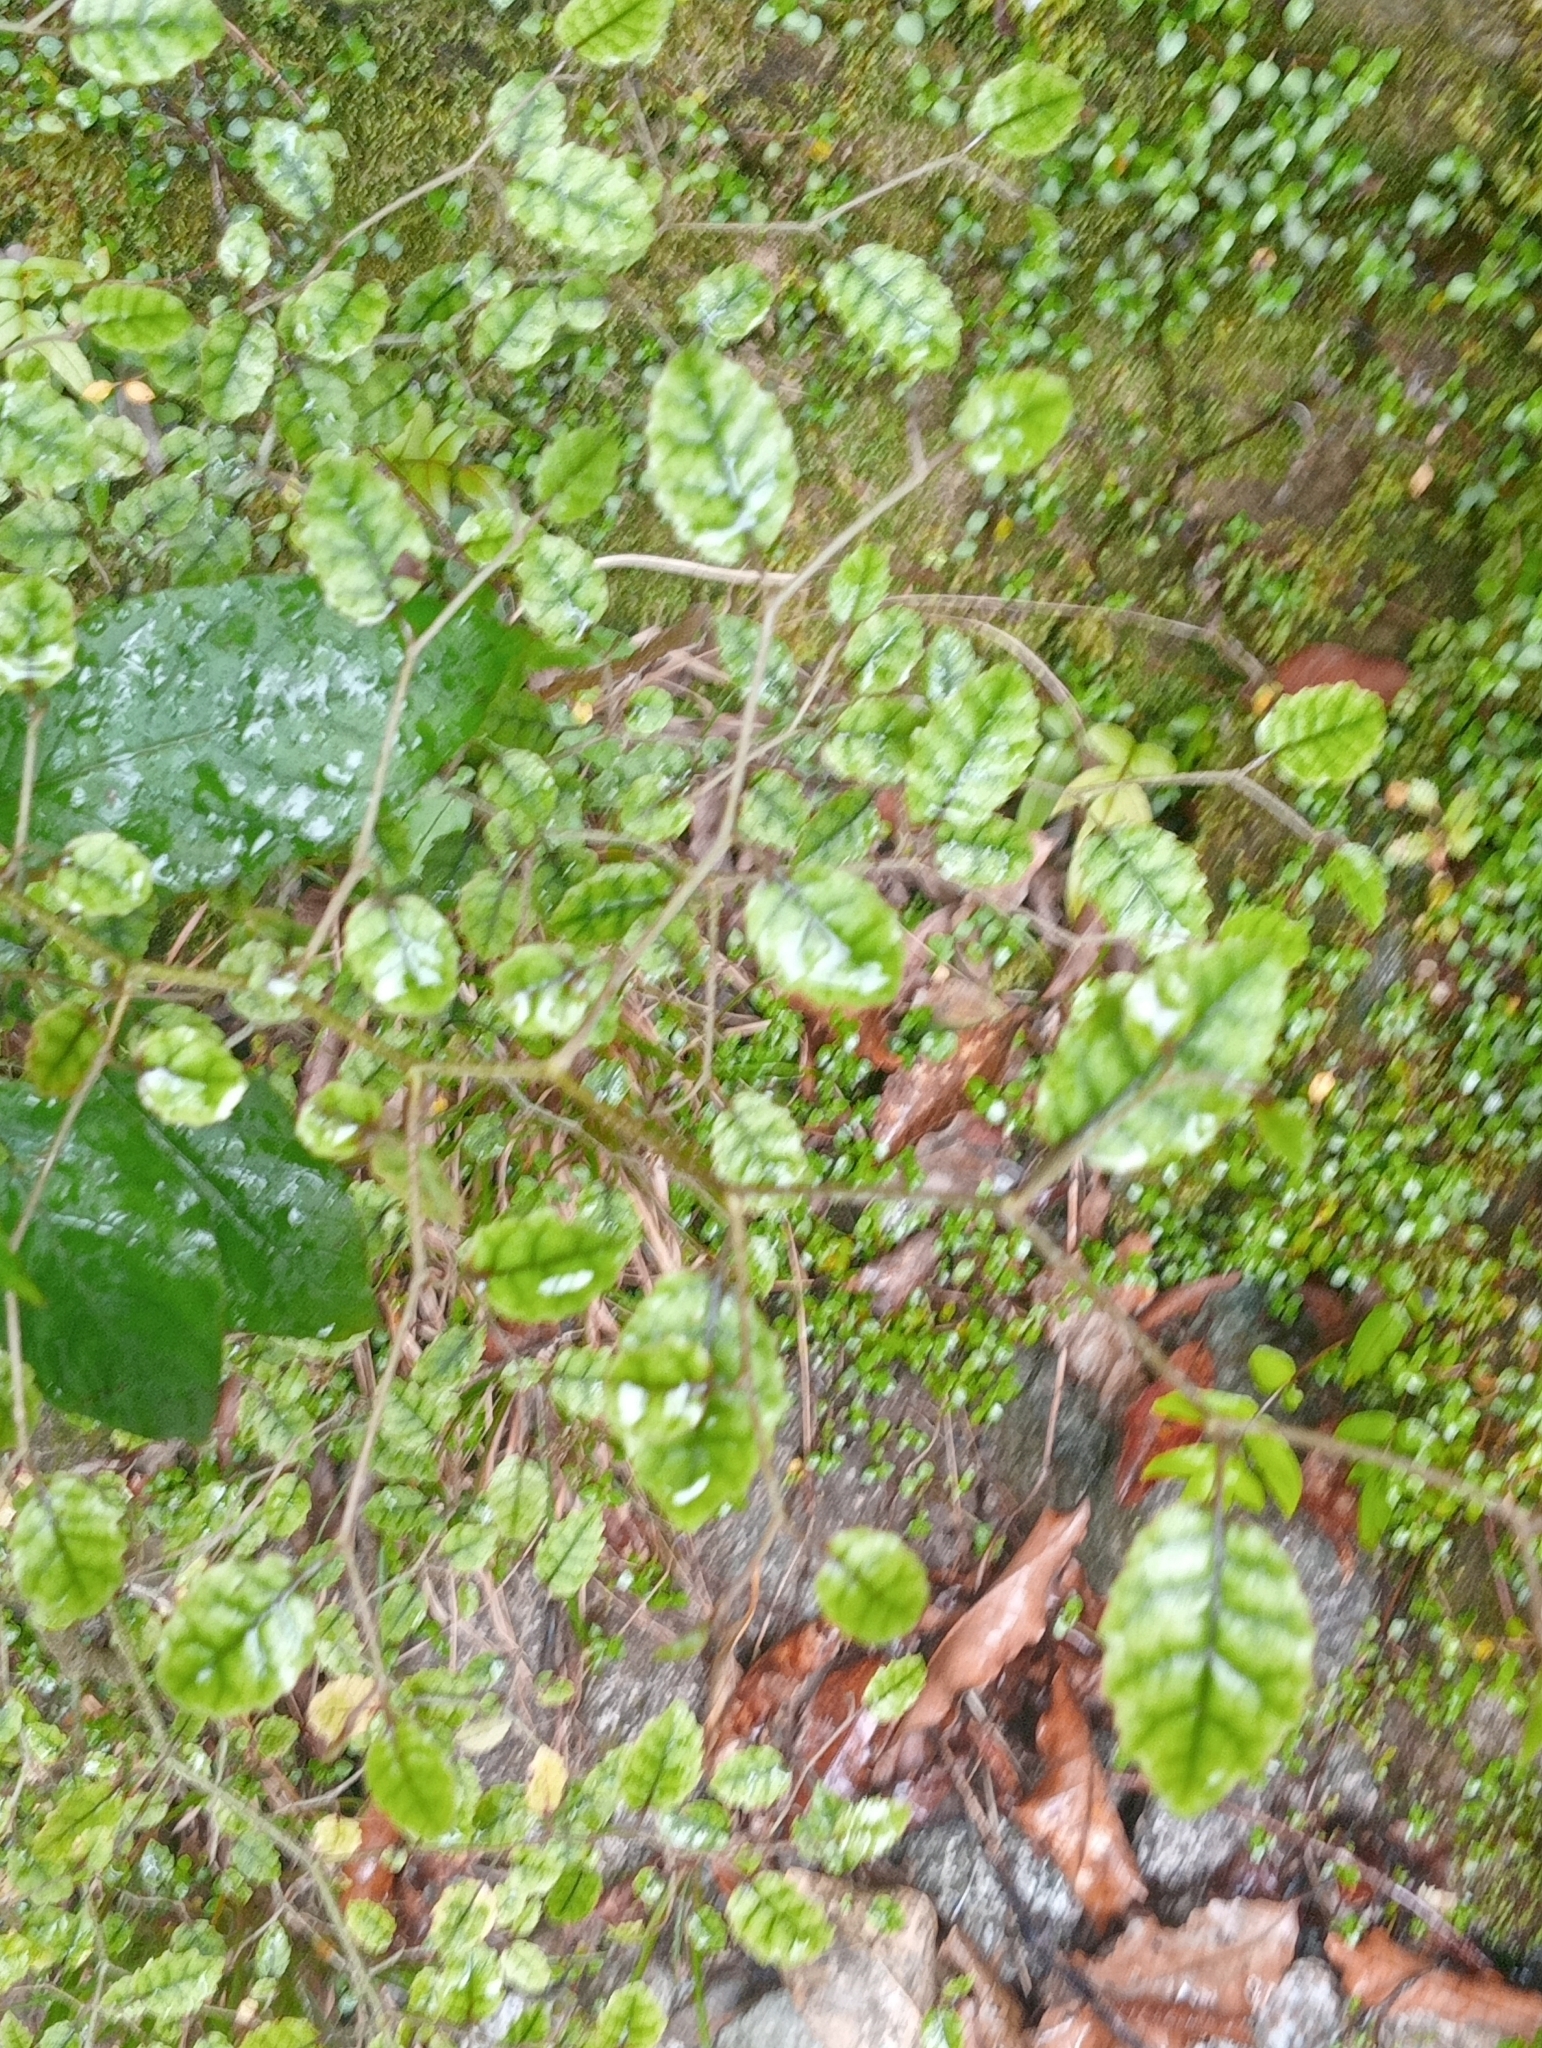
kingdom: Plantae
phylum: Tracheophyta
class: Magnoliopsida
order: Asterales
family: Rousseaceae
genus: Carpodetus
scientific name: Carpodetus serratus
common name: White mapau
